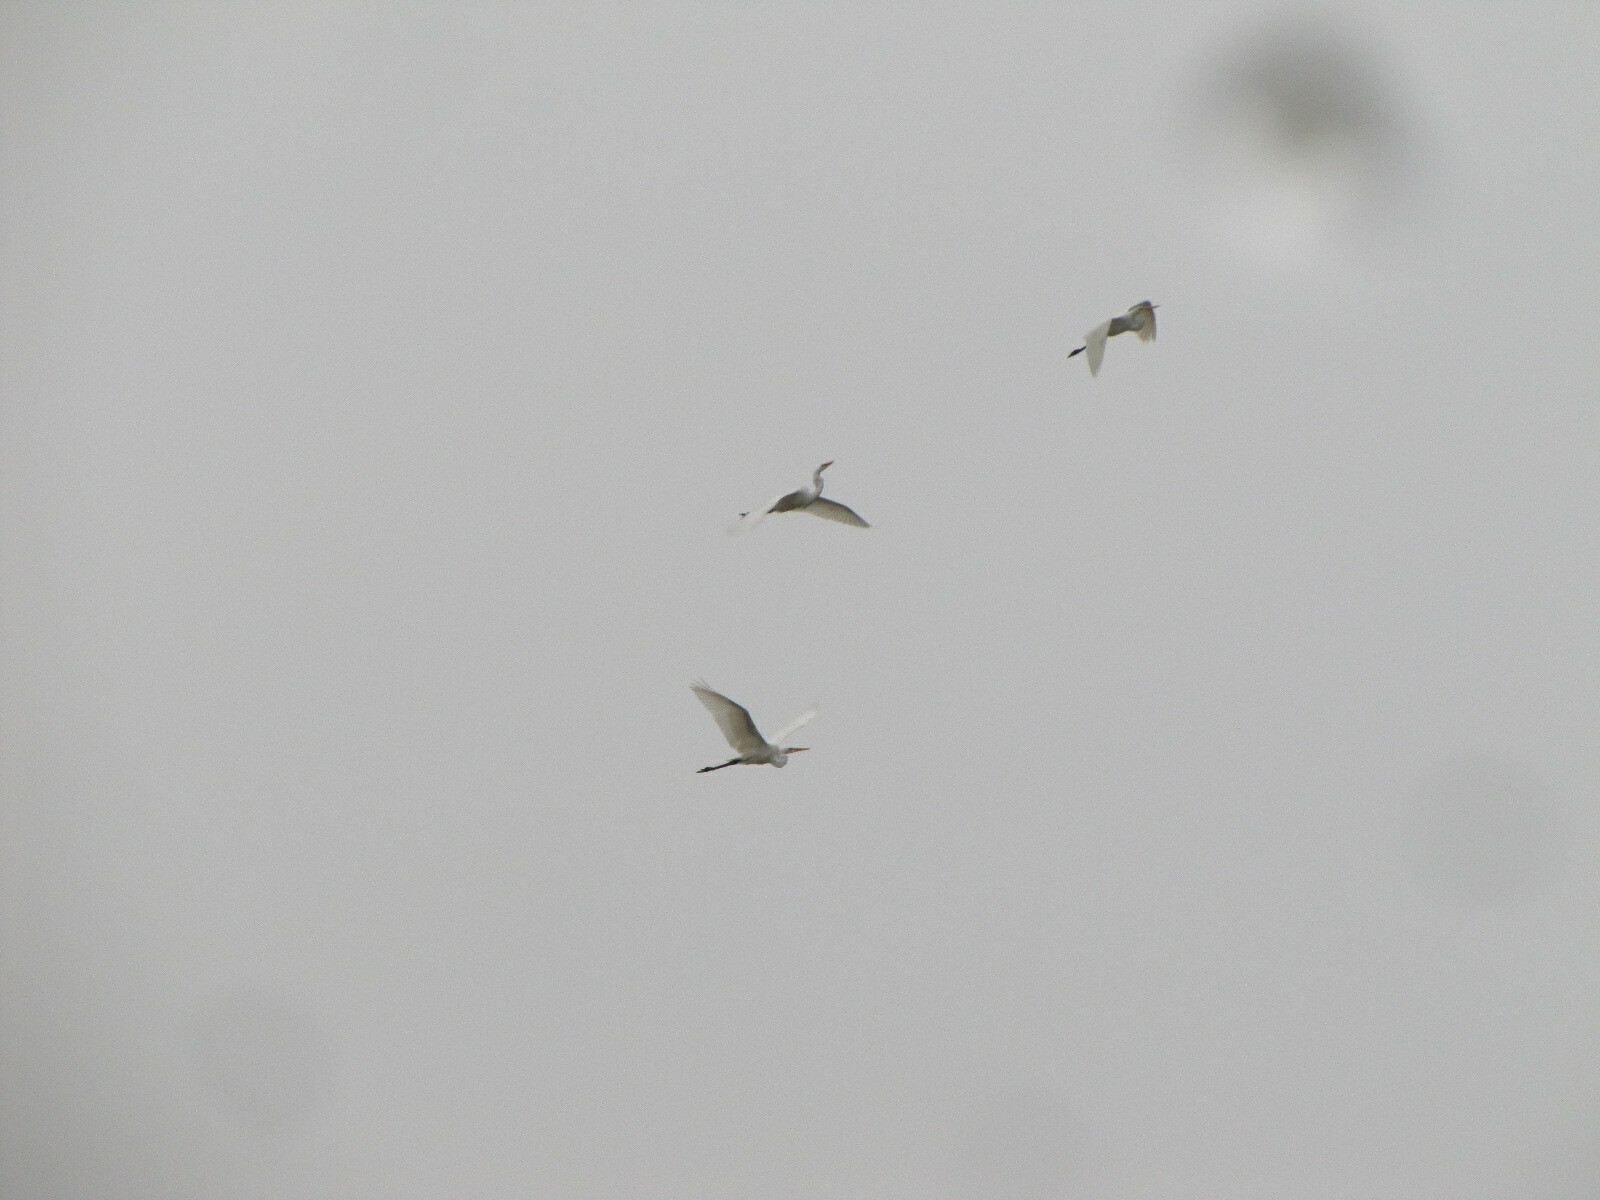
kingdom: Animalia
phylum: Chordata
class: Aves
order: Pelecaniformes
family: Ardeidae
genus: Ardea
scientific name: Ardea alba
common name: Great egret
